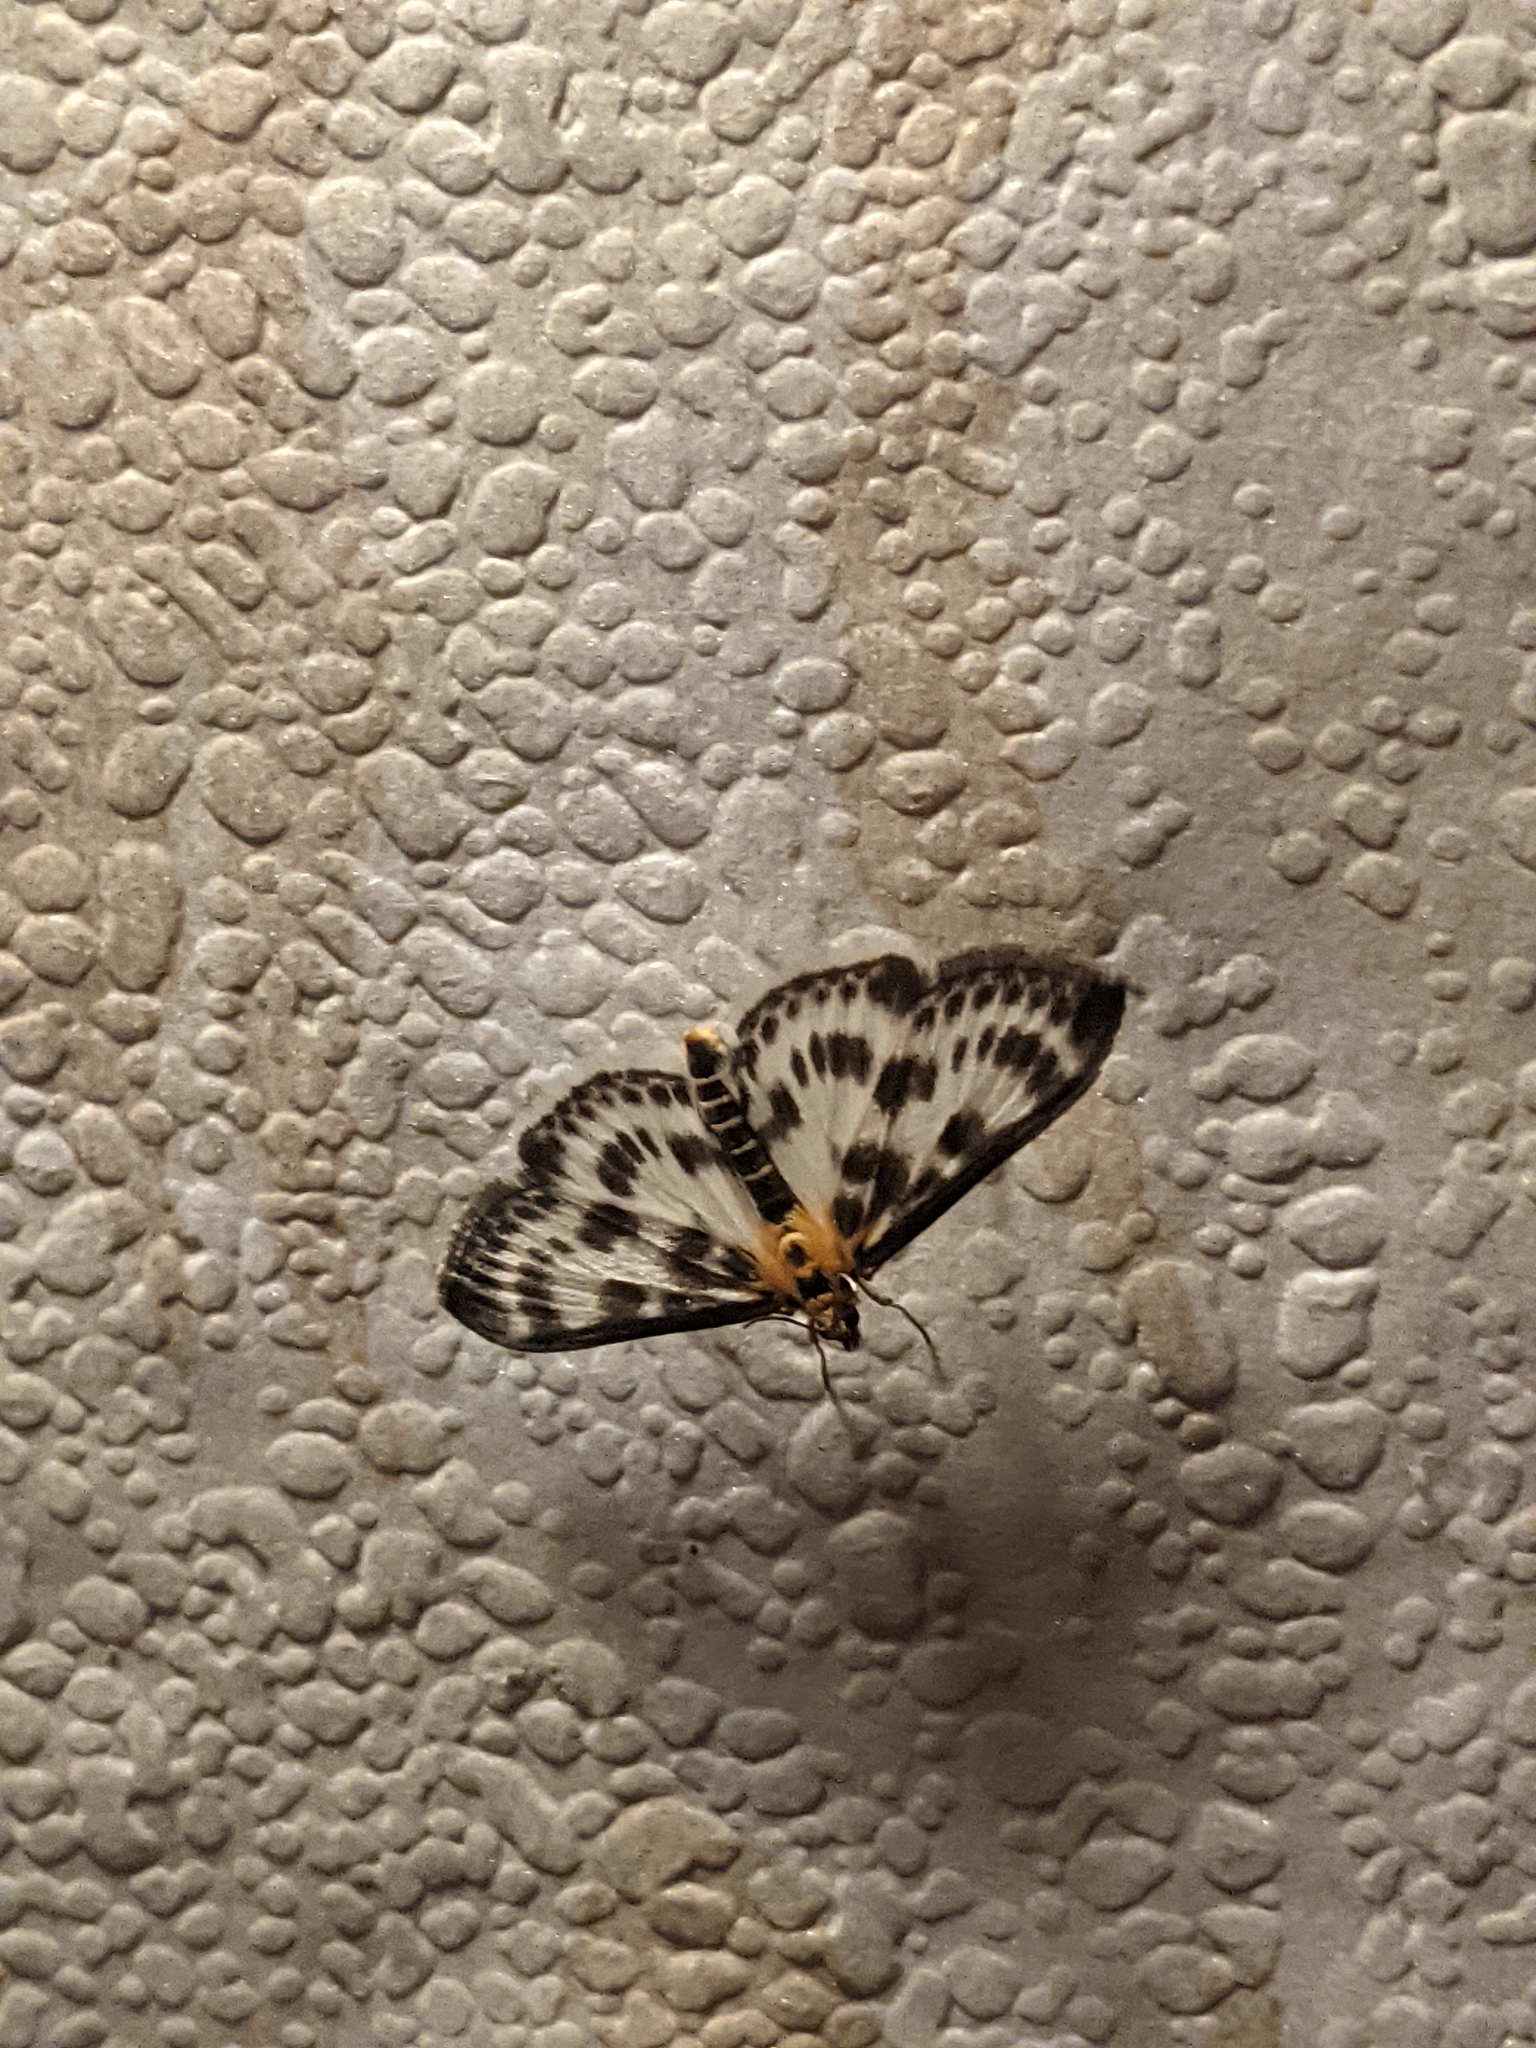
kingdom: Animalia
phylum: Arthropoda
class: Insecta
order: Lepidoptera
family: Crambidae
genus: Anania
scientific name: Anania hortulata
